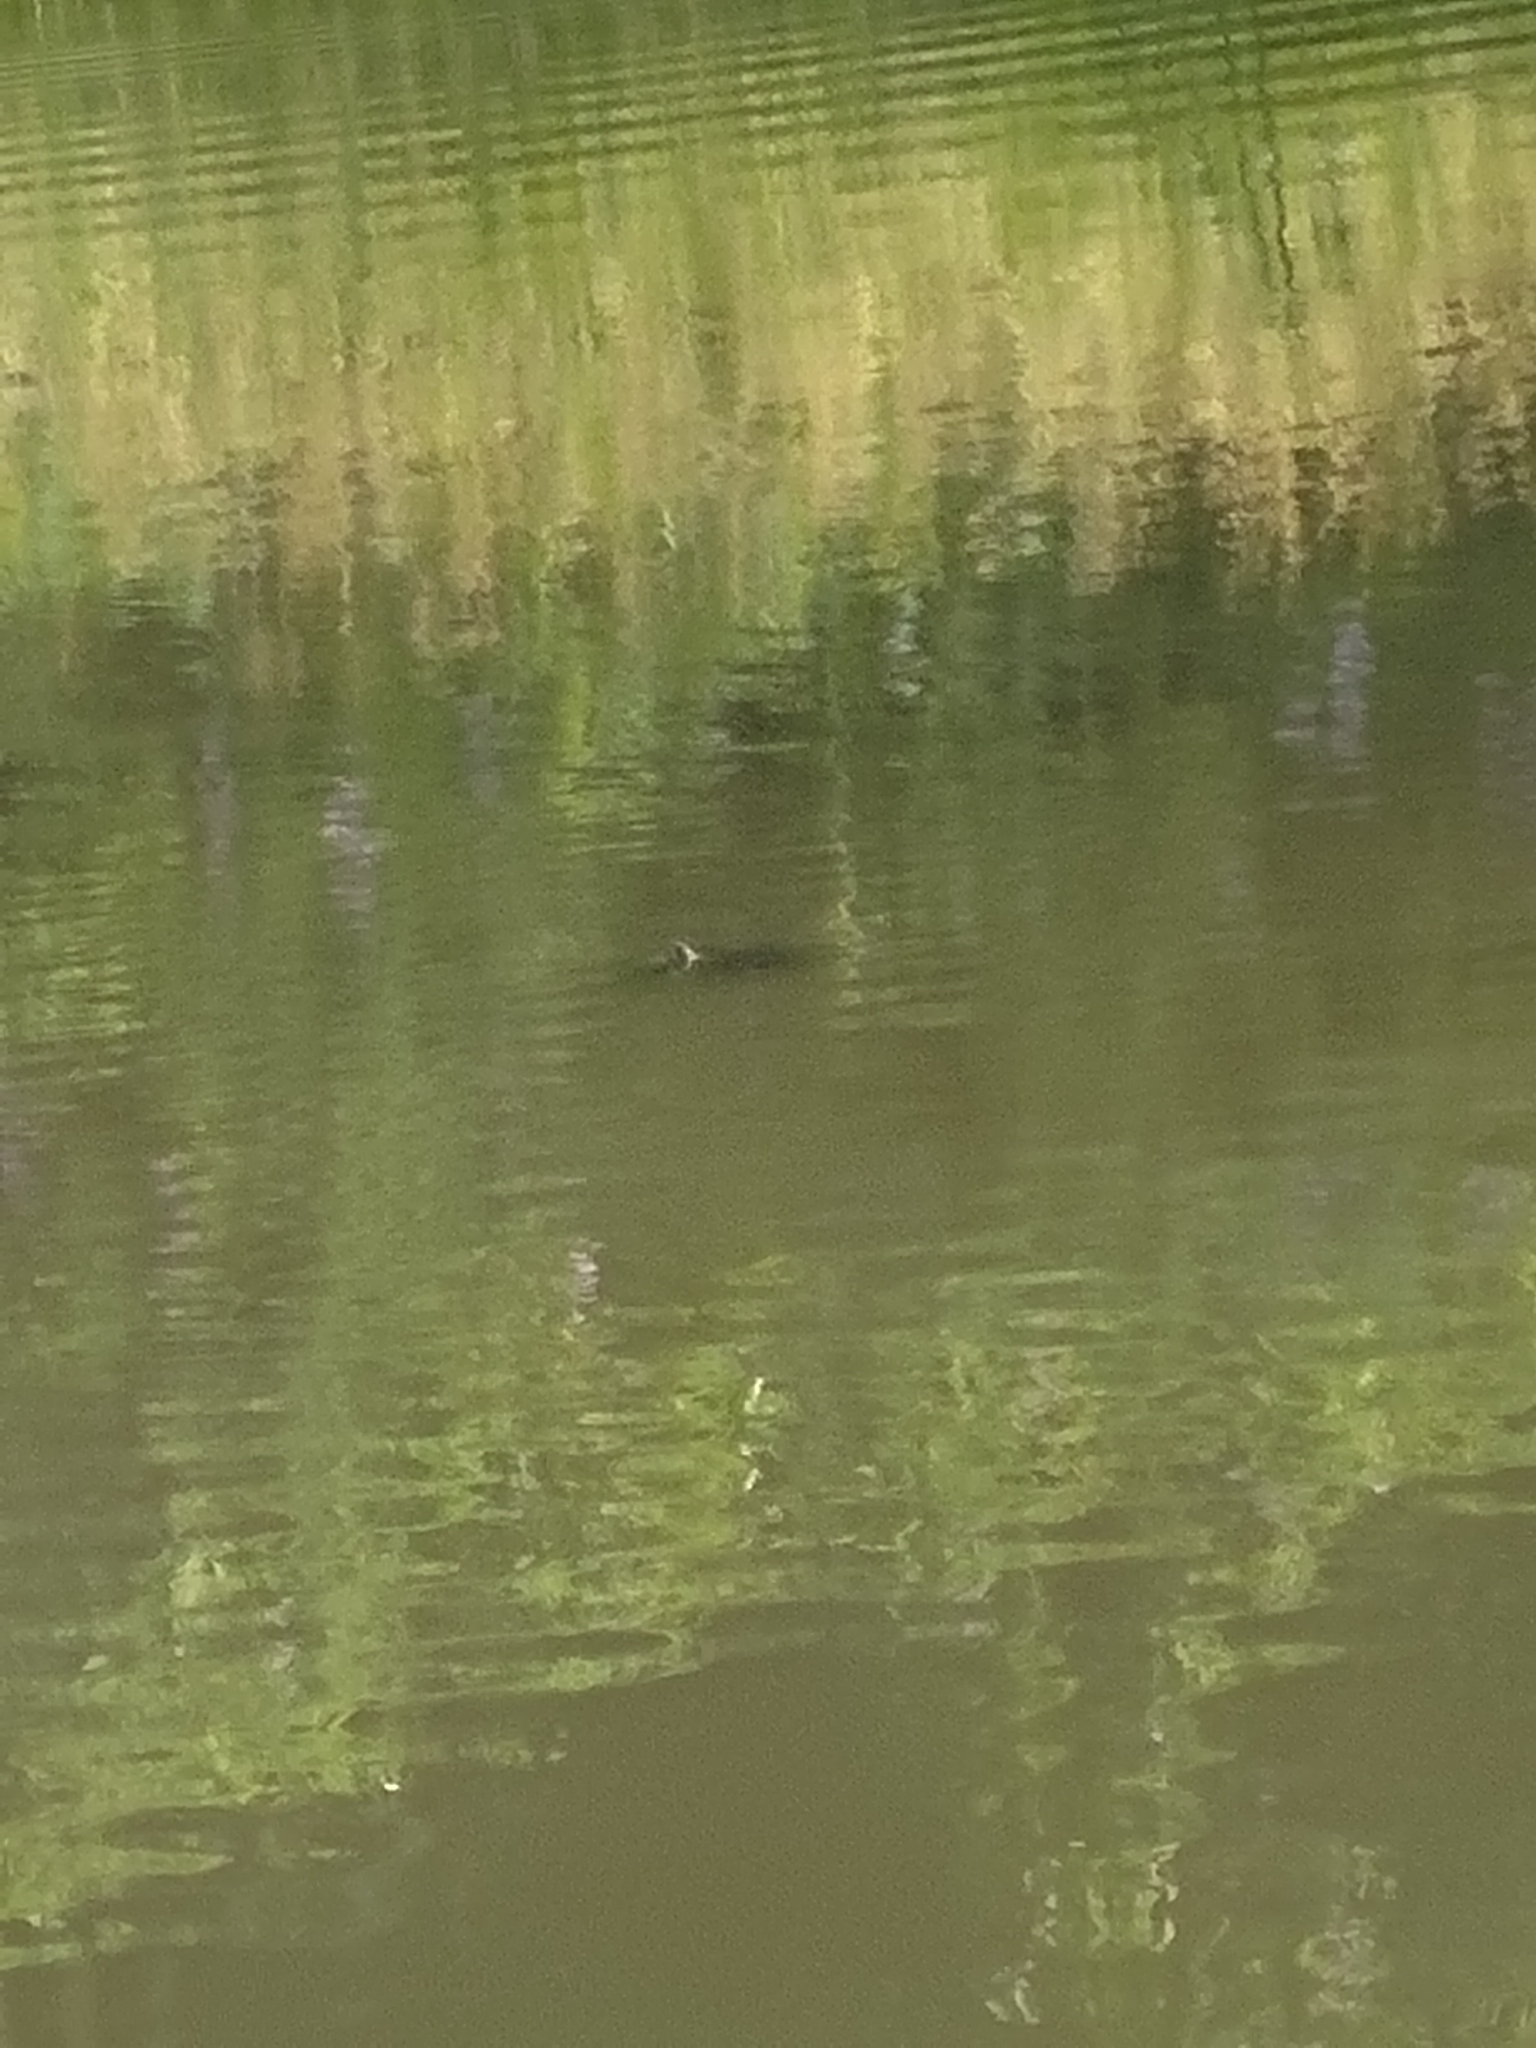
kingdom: Animalia
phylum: Chordata
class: Testudines
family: Geoemydidae
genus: Mauremys
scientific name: Mauremys sinensis
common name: Chinese stripe-necked turtle
